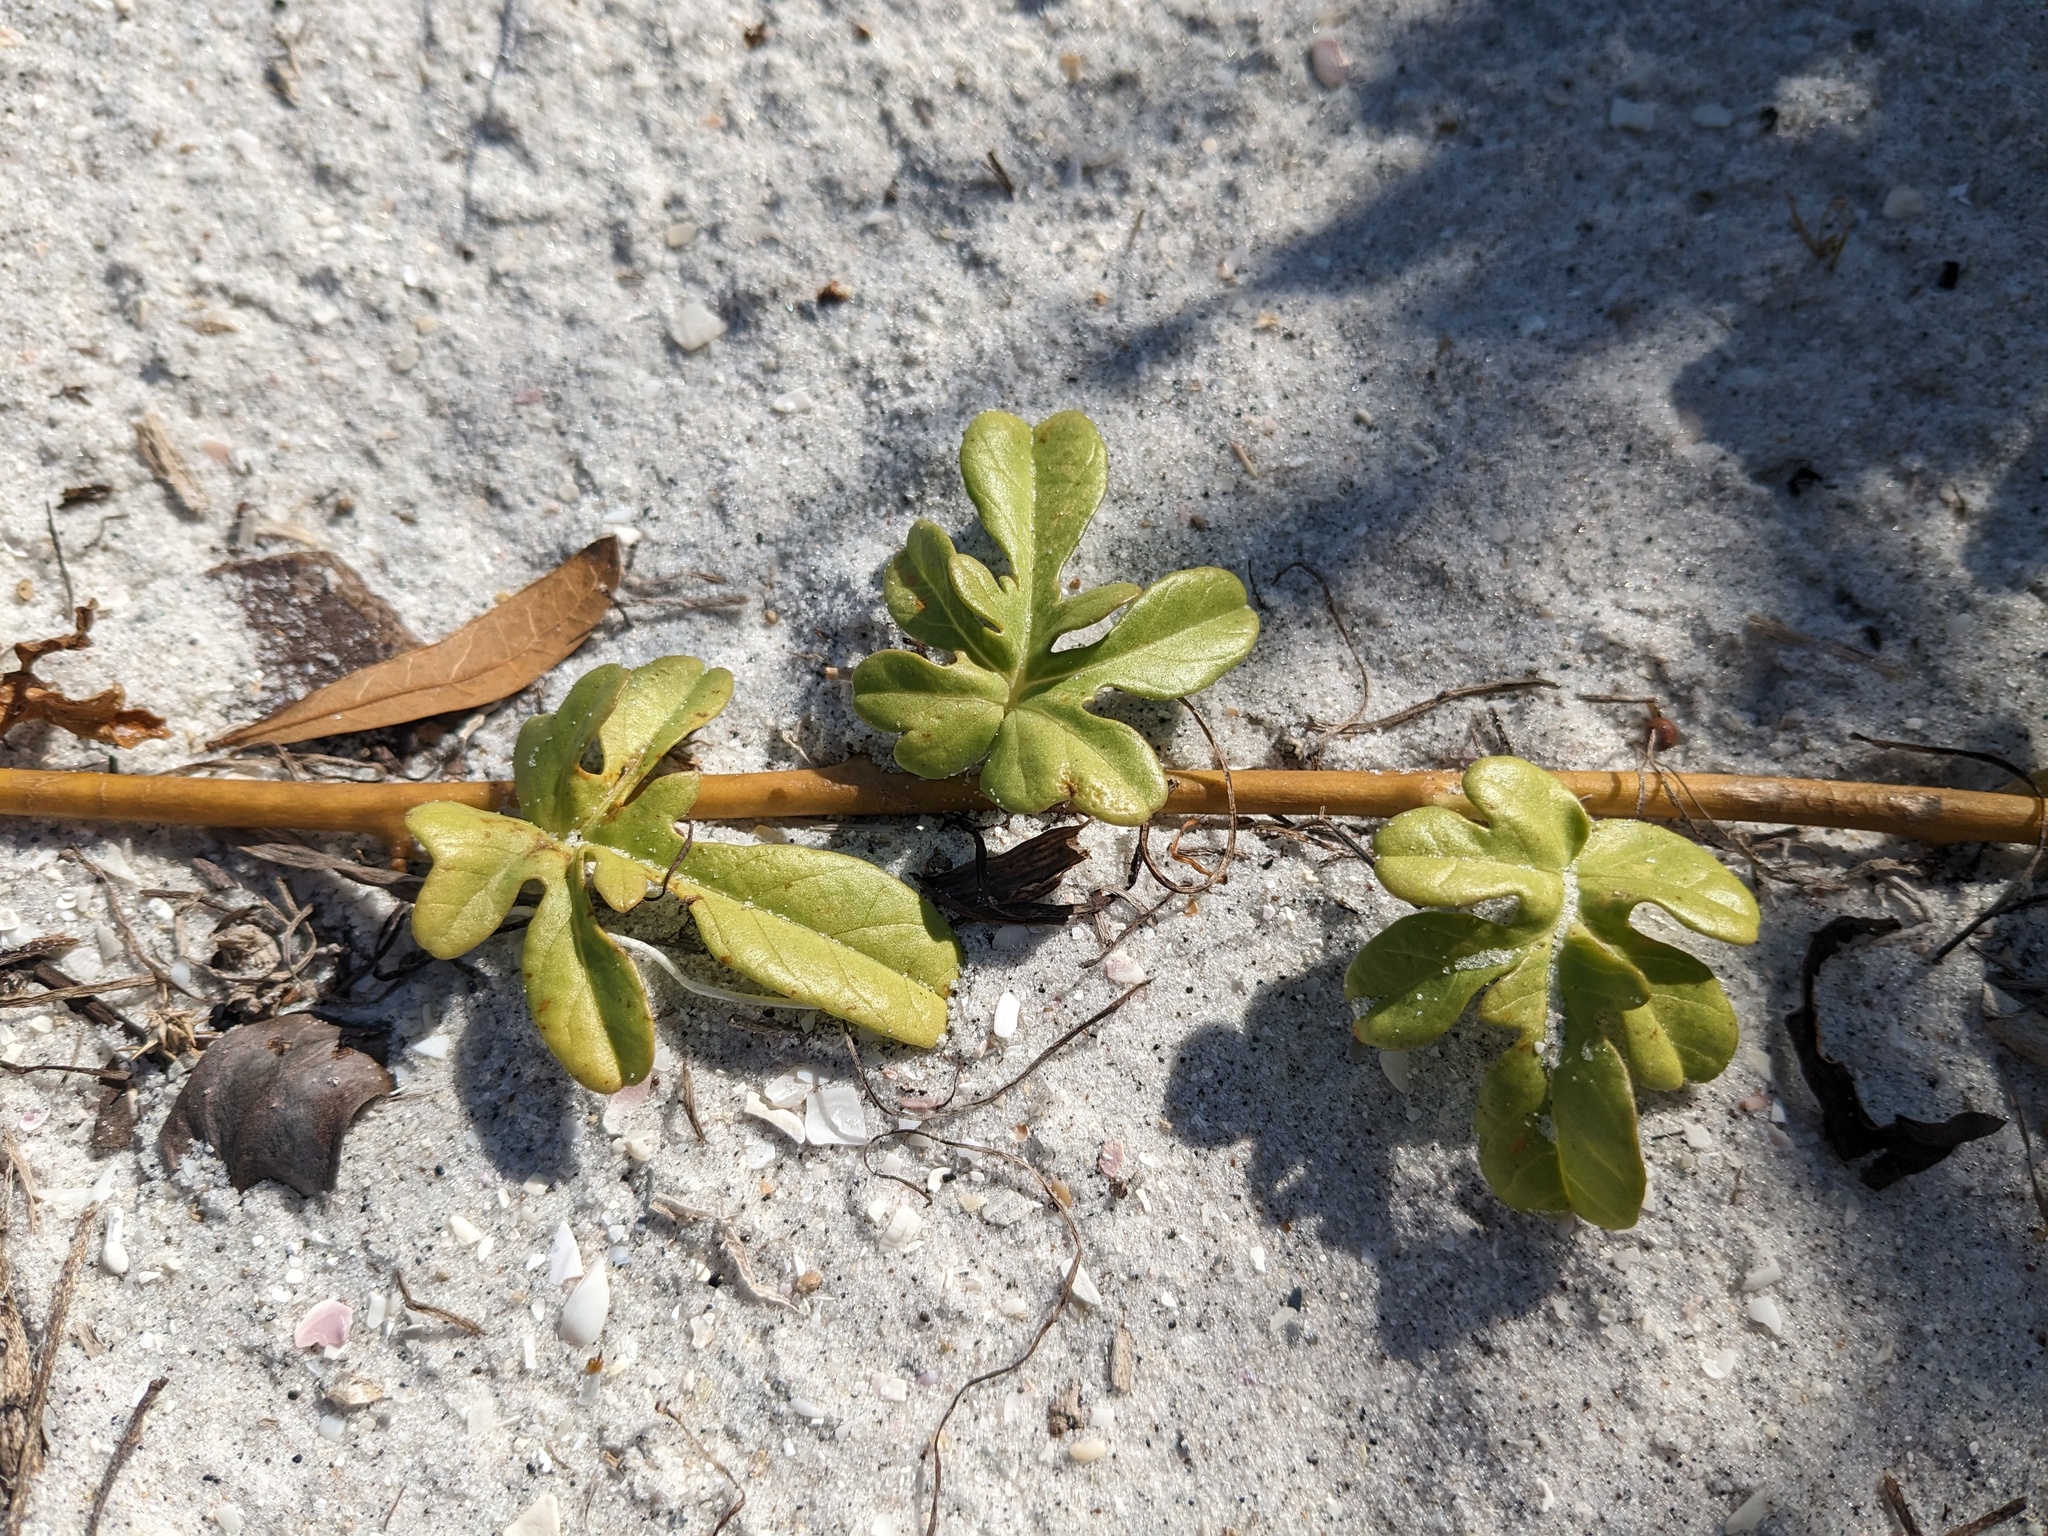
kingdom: Plantae
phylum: Tracheophyta
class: Magnoliopsida
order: Solanales
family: Convolvulaceae
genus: Ipomoea
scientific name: Ipomoea imperati
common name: Fiddle-leaf morning-glory
